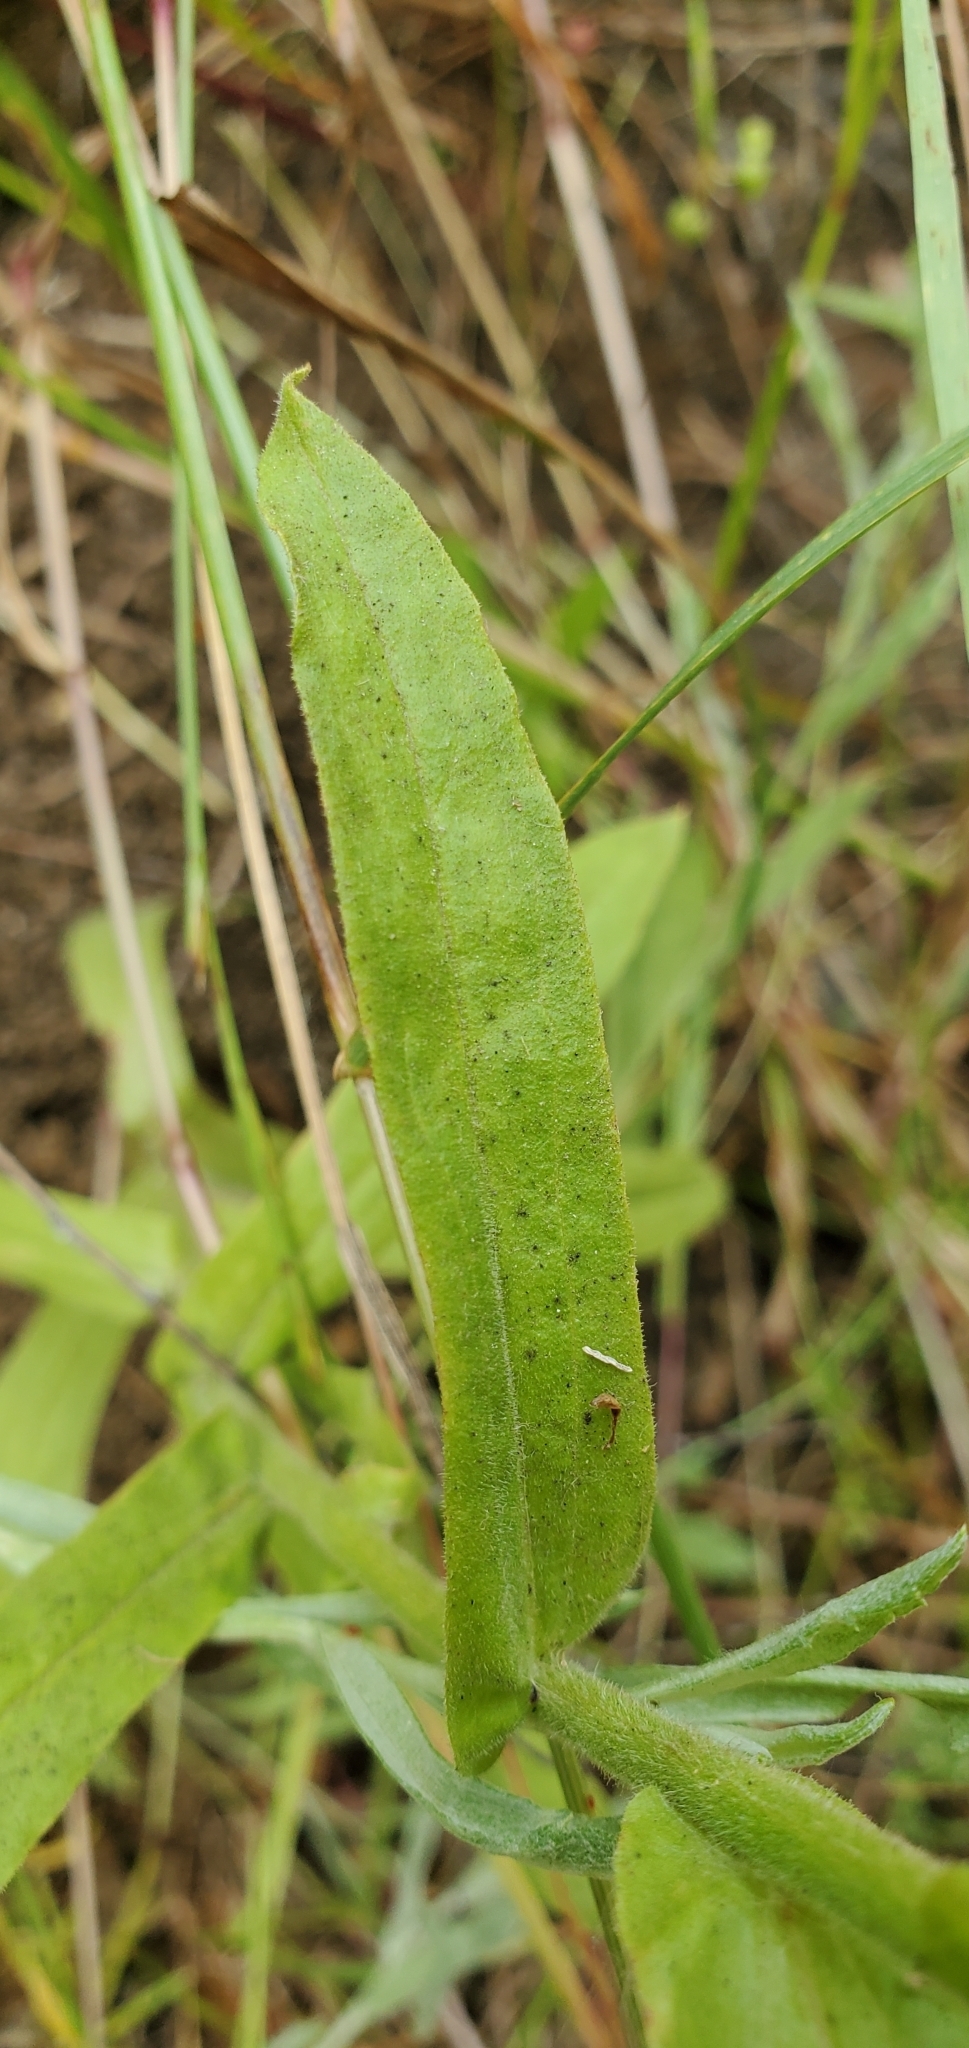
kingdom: Plantae
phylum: Tracheophyta
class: Magnoliopsida
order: Asterales
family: Asteraceae
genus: Pseudognaphalium
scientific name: Pseudognaphalium californicum
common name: California rabbit-tobacco
